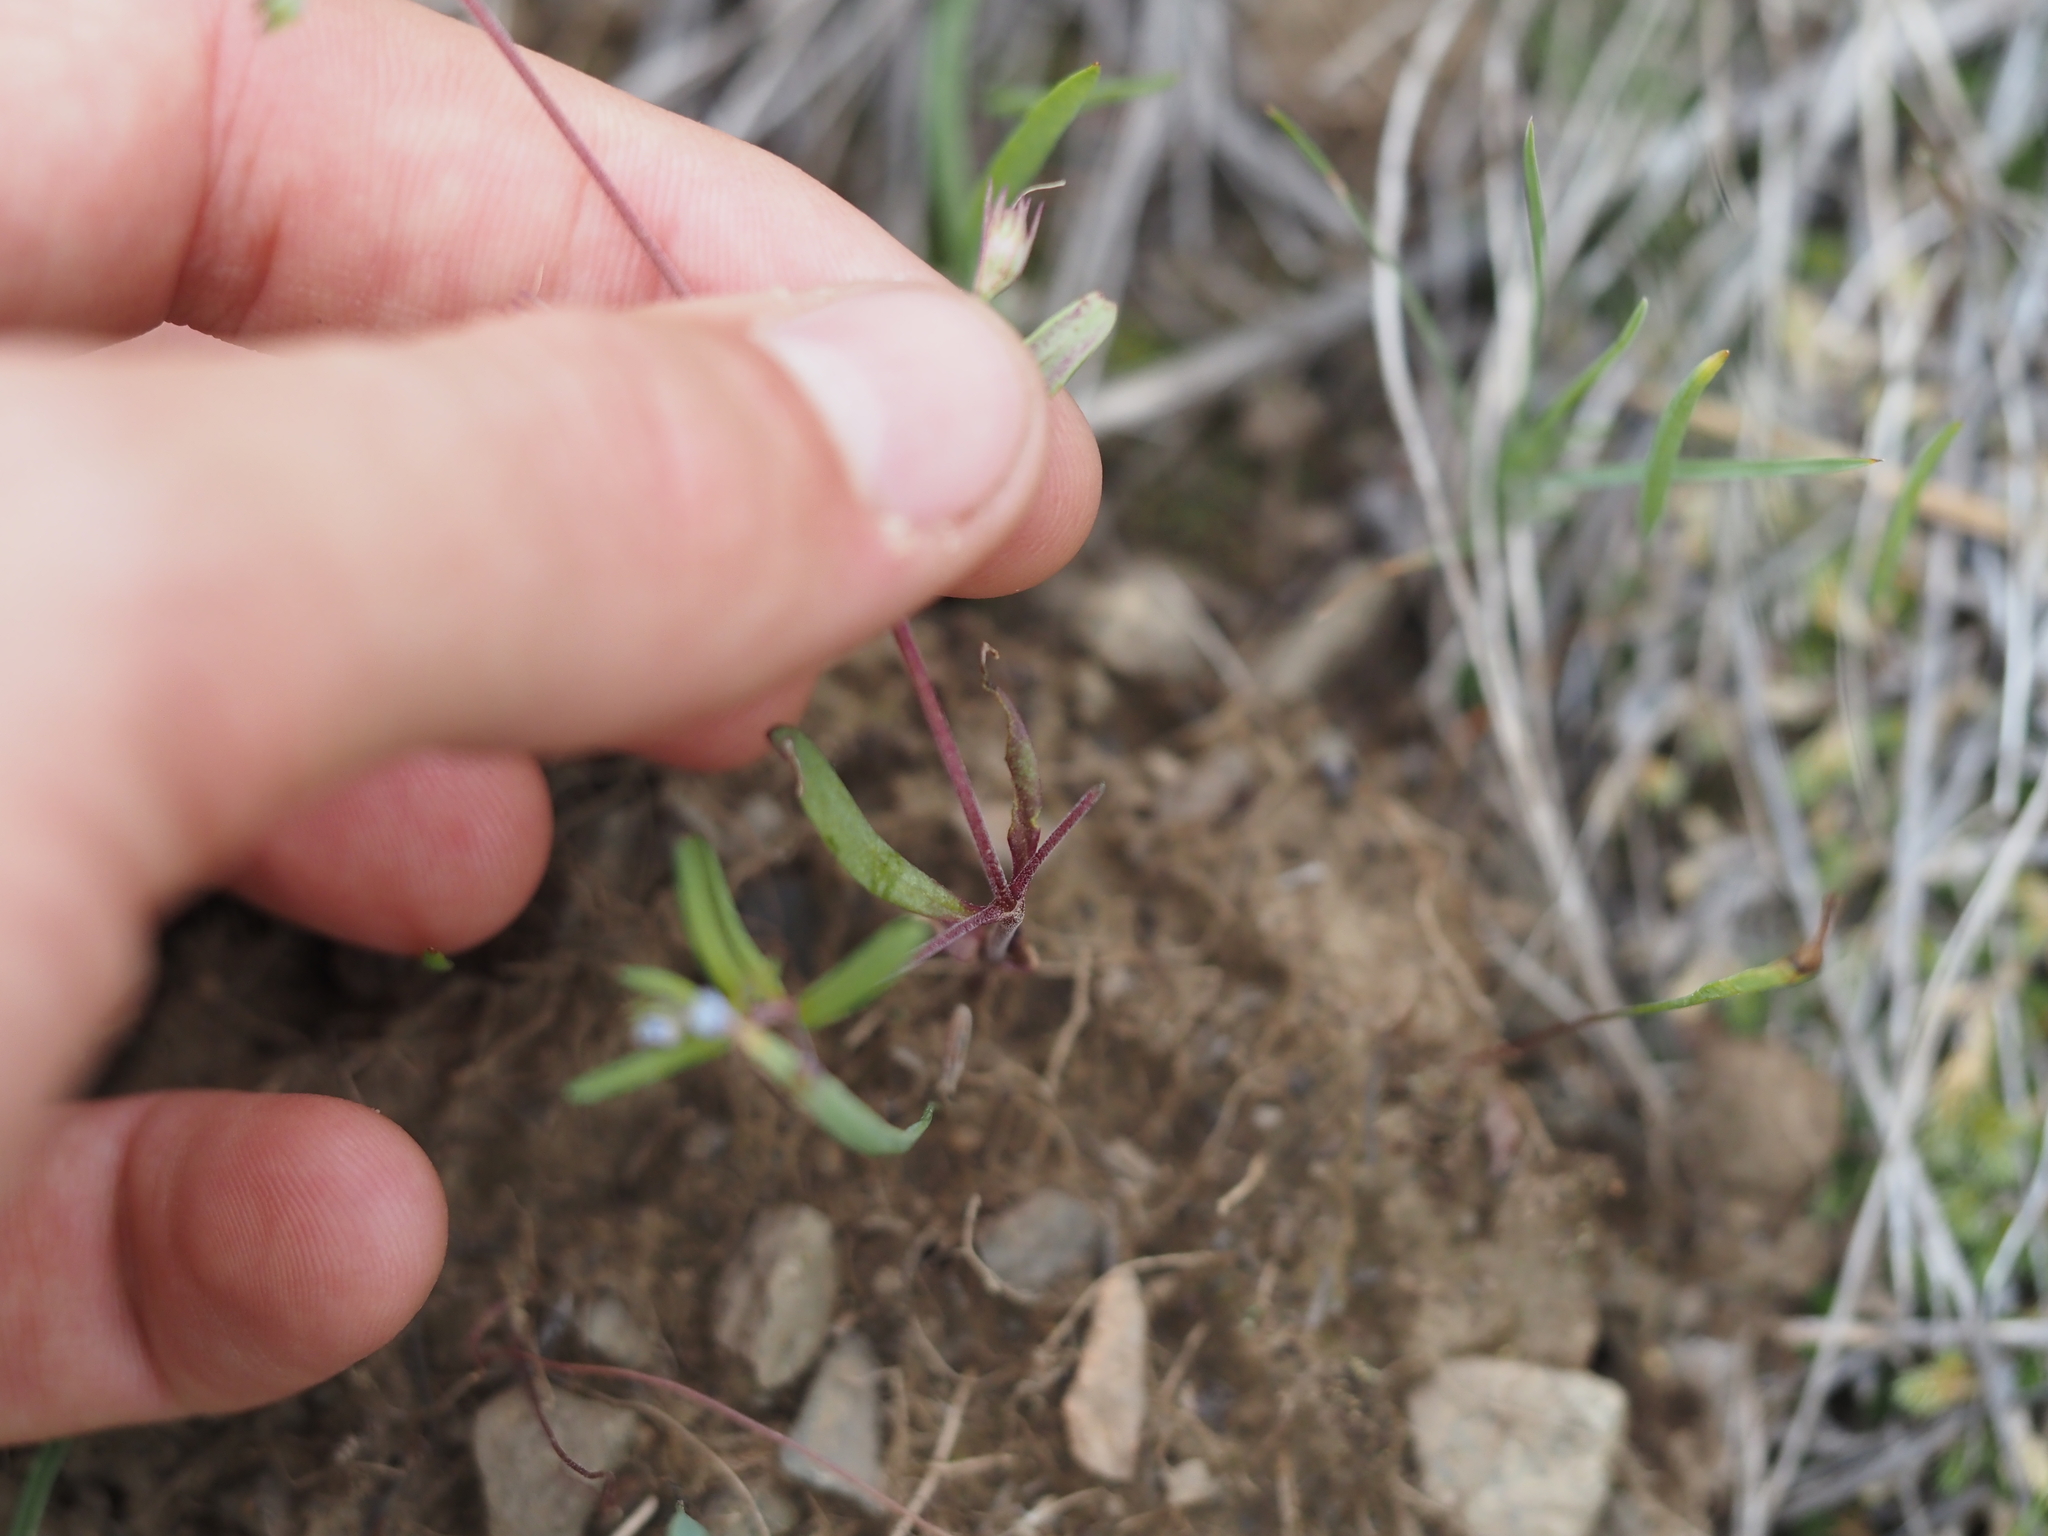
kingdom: Plantae
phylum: Tracheophyta
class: Magnoliopsida
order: Lamiales
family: Plantaginaceae
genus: Collinsia
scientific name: Collinsia parviflora
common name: Blue-lips
